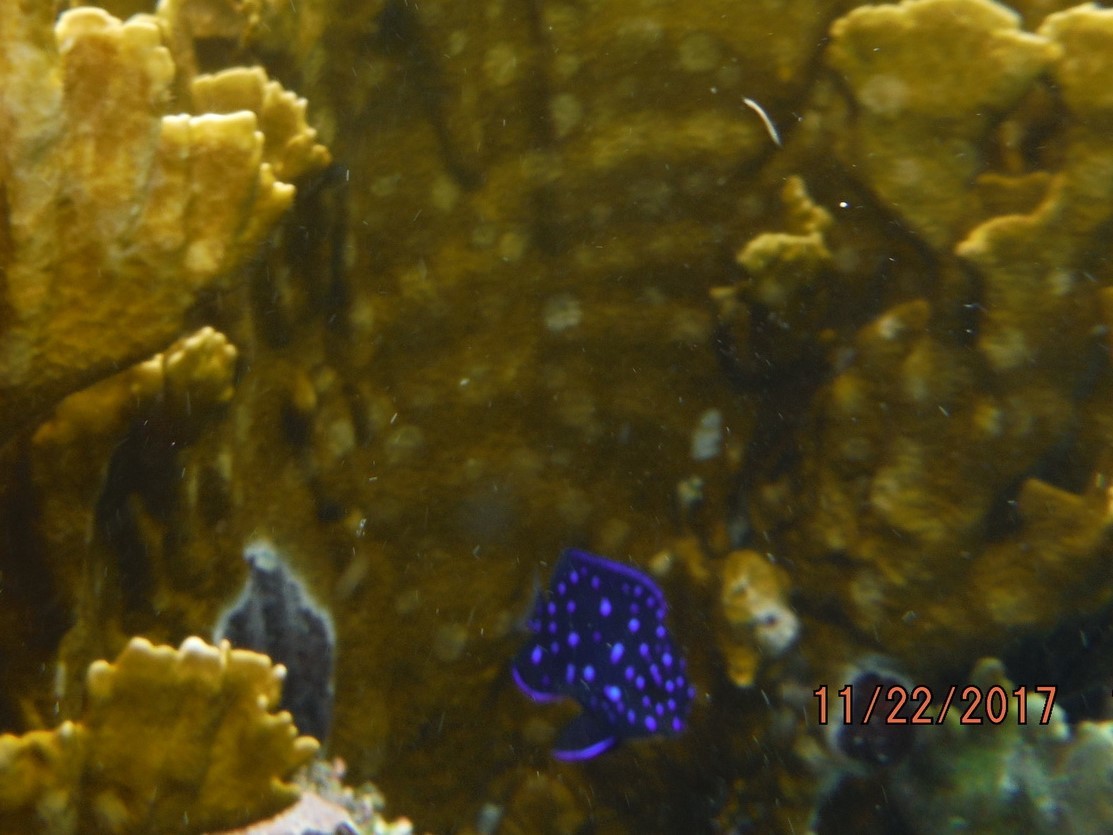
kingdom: Animalia
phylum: Chordata
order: Perciformes
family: Pomacentridae
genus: Microspathodon
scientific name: Microspathodon chrysurus
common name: Yellowtail damselfish
